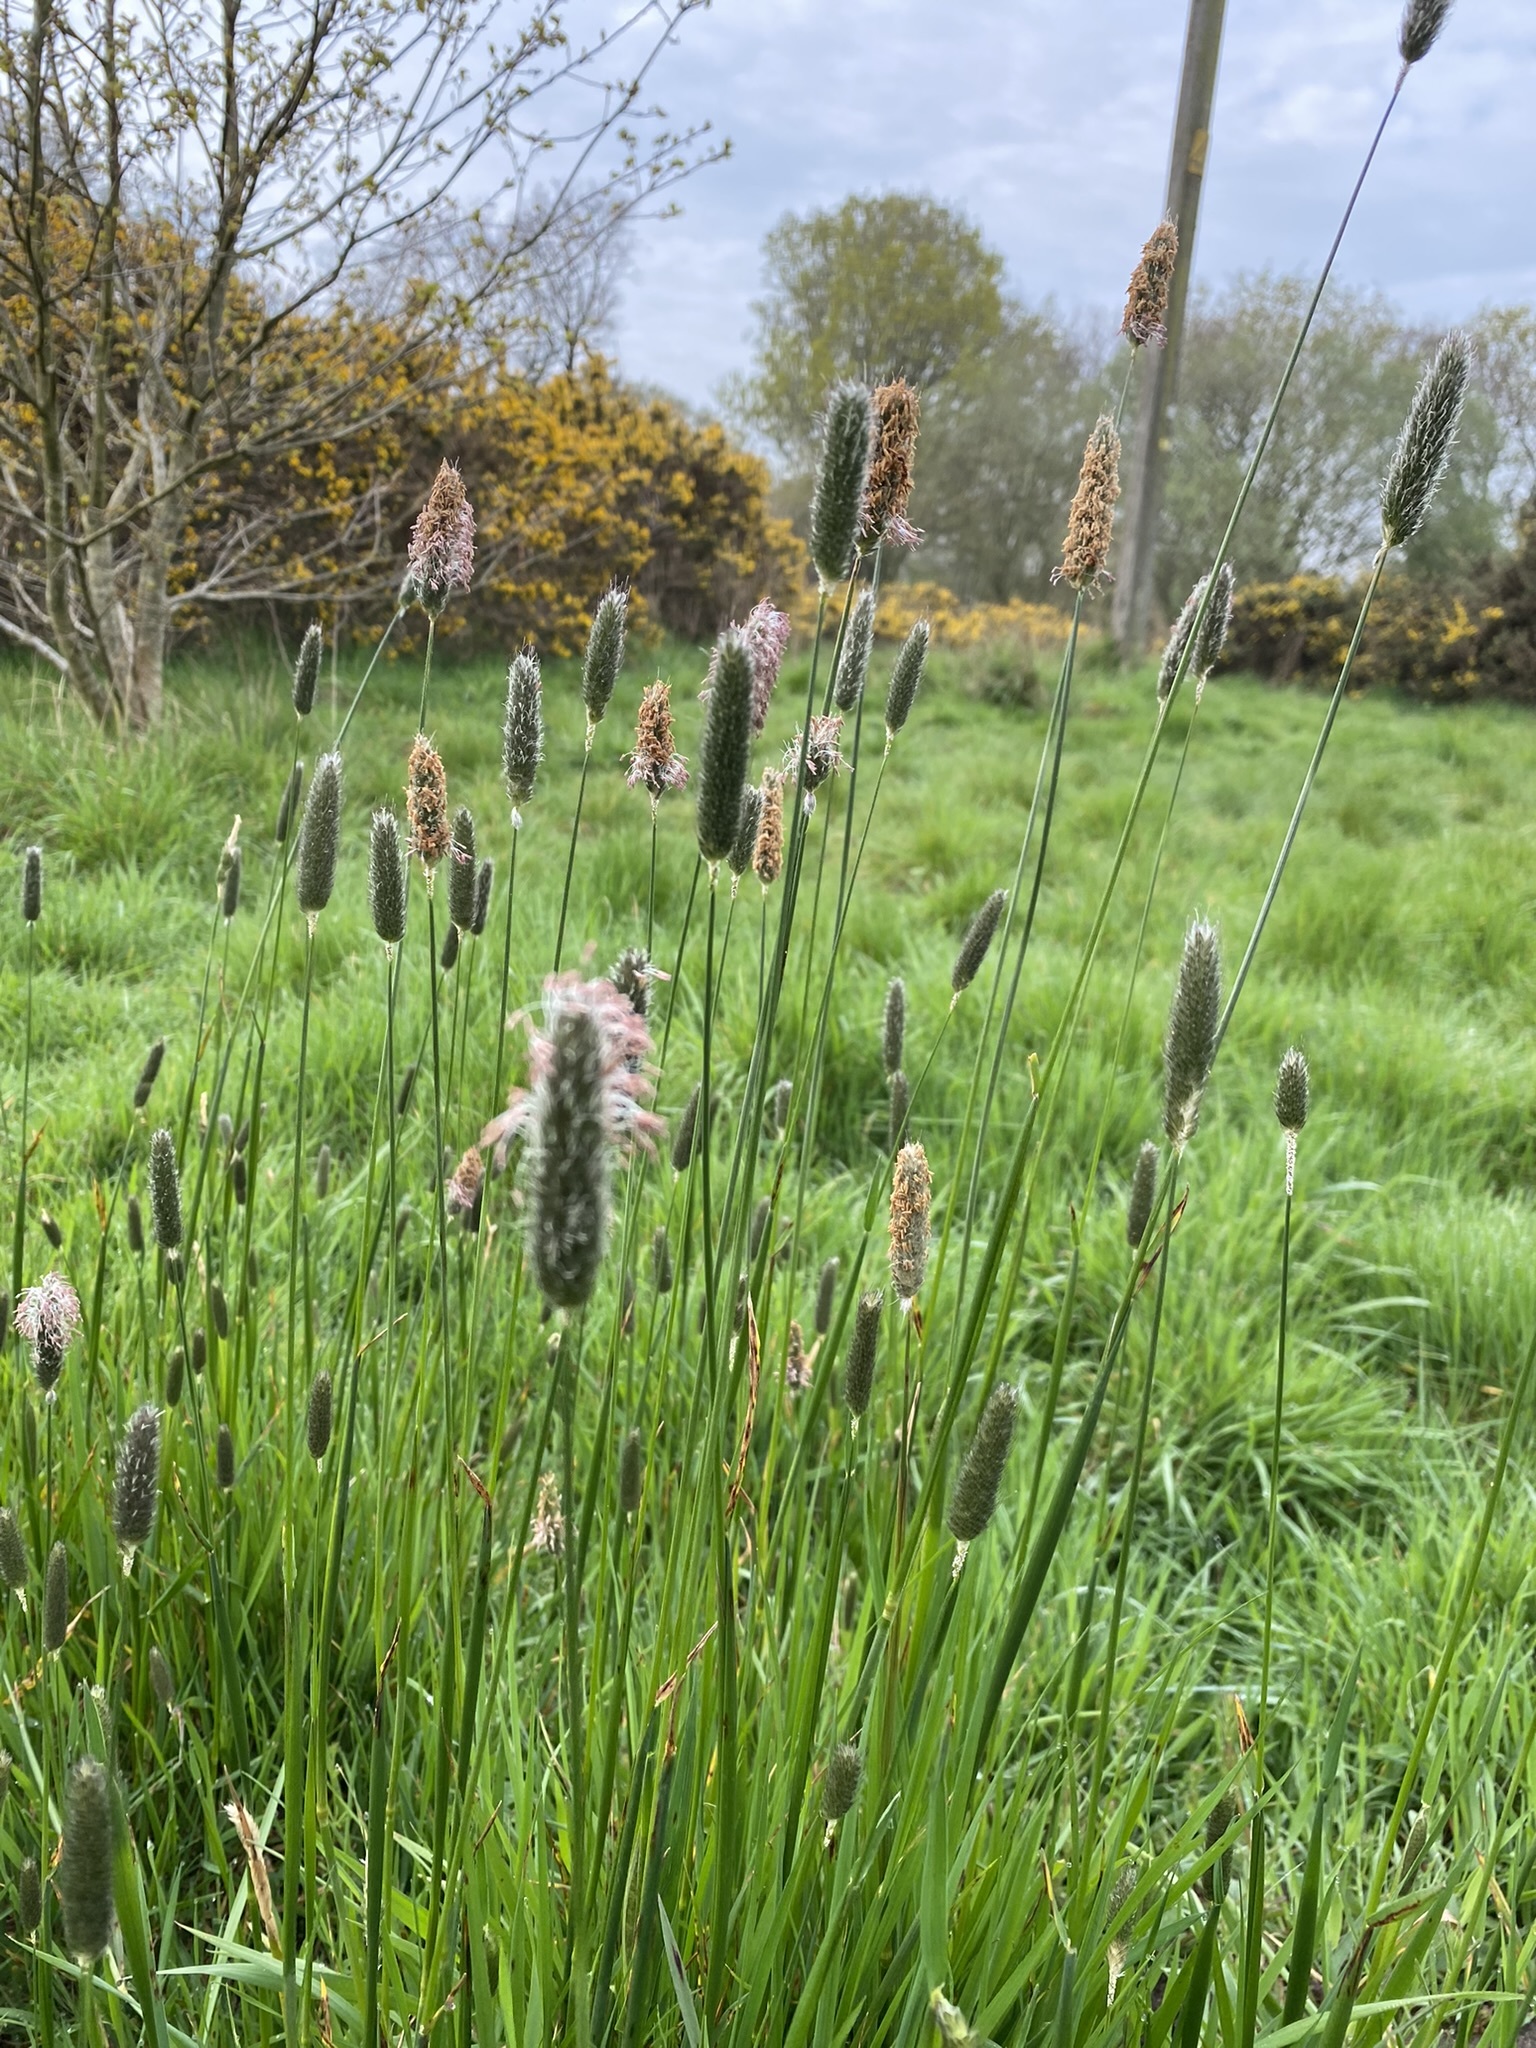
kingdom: Plantae
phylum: Tracheophyta
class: Liliopsida
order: Poales
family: Poaceae
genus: Alopecurus
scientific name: Alopecurus pratensis
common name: Meadow foxtail
